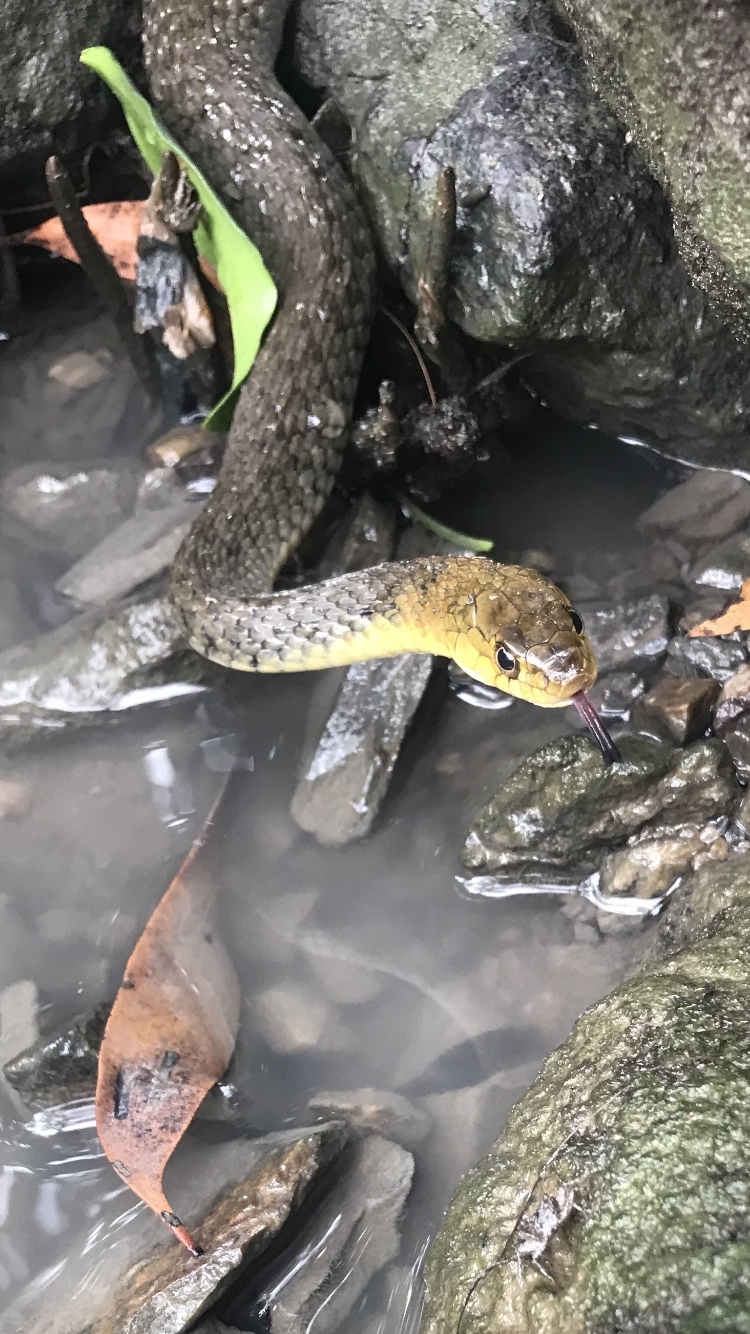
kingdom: Animalia
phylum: Chordata
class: Squamata
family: Colubridae
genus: Tropidonophis
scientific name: Tropidonophis mairii
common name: Common keelback
